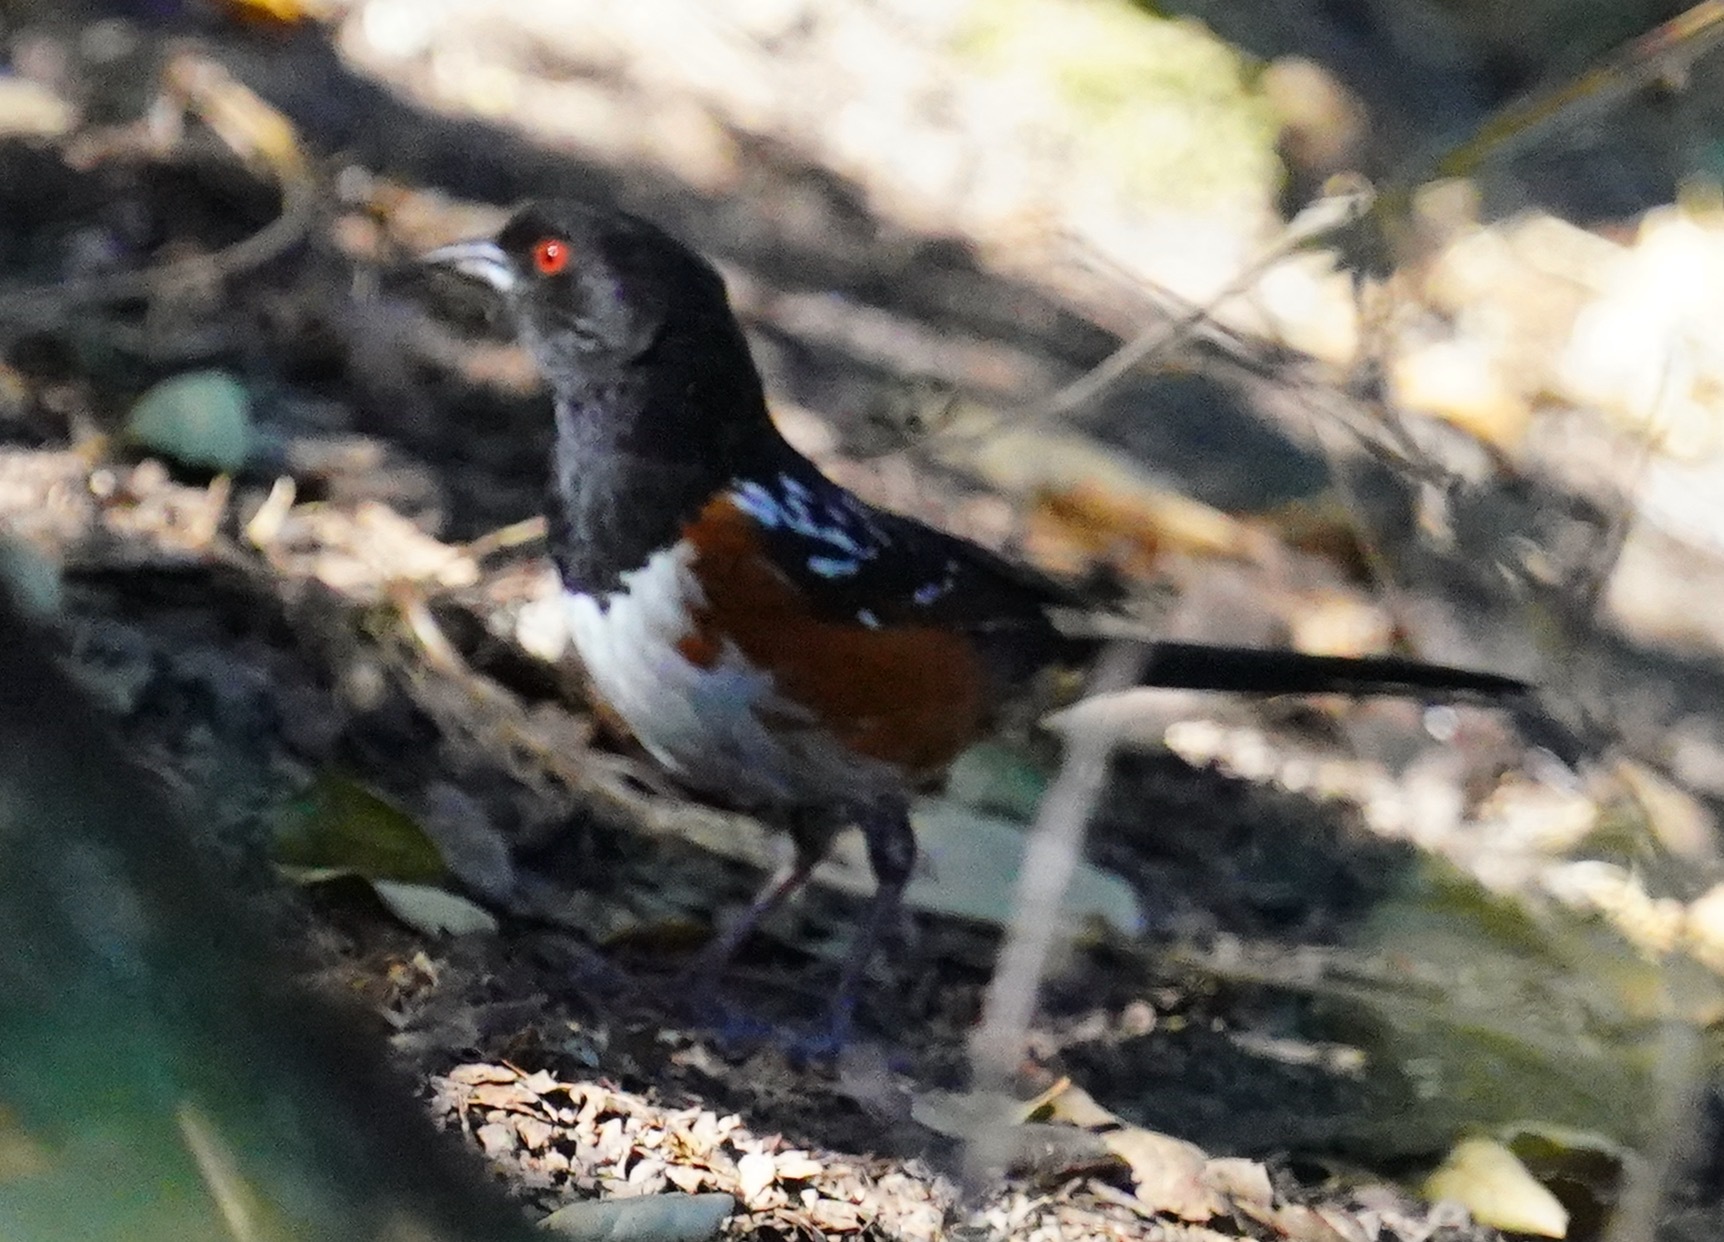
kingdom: Animalia
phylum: Chordata
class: Aves
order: Passeriformes
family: Passerellidae
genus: Pipilo
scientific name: Pipilo maculatus
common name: Spotted towhee
